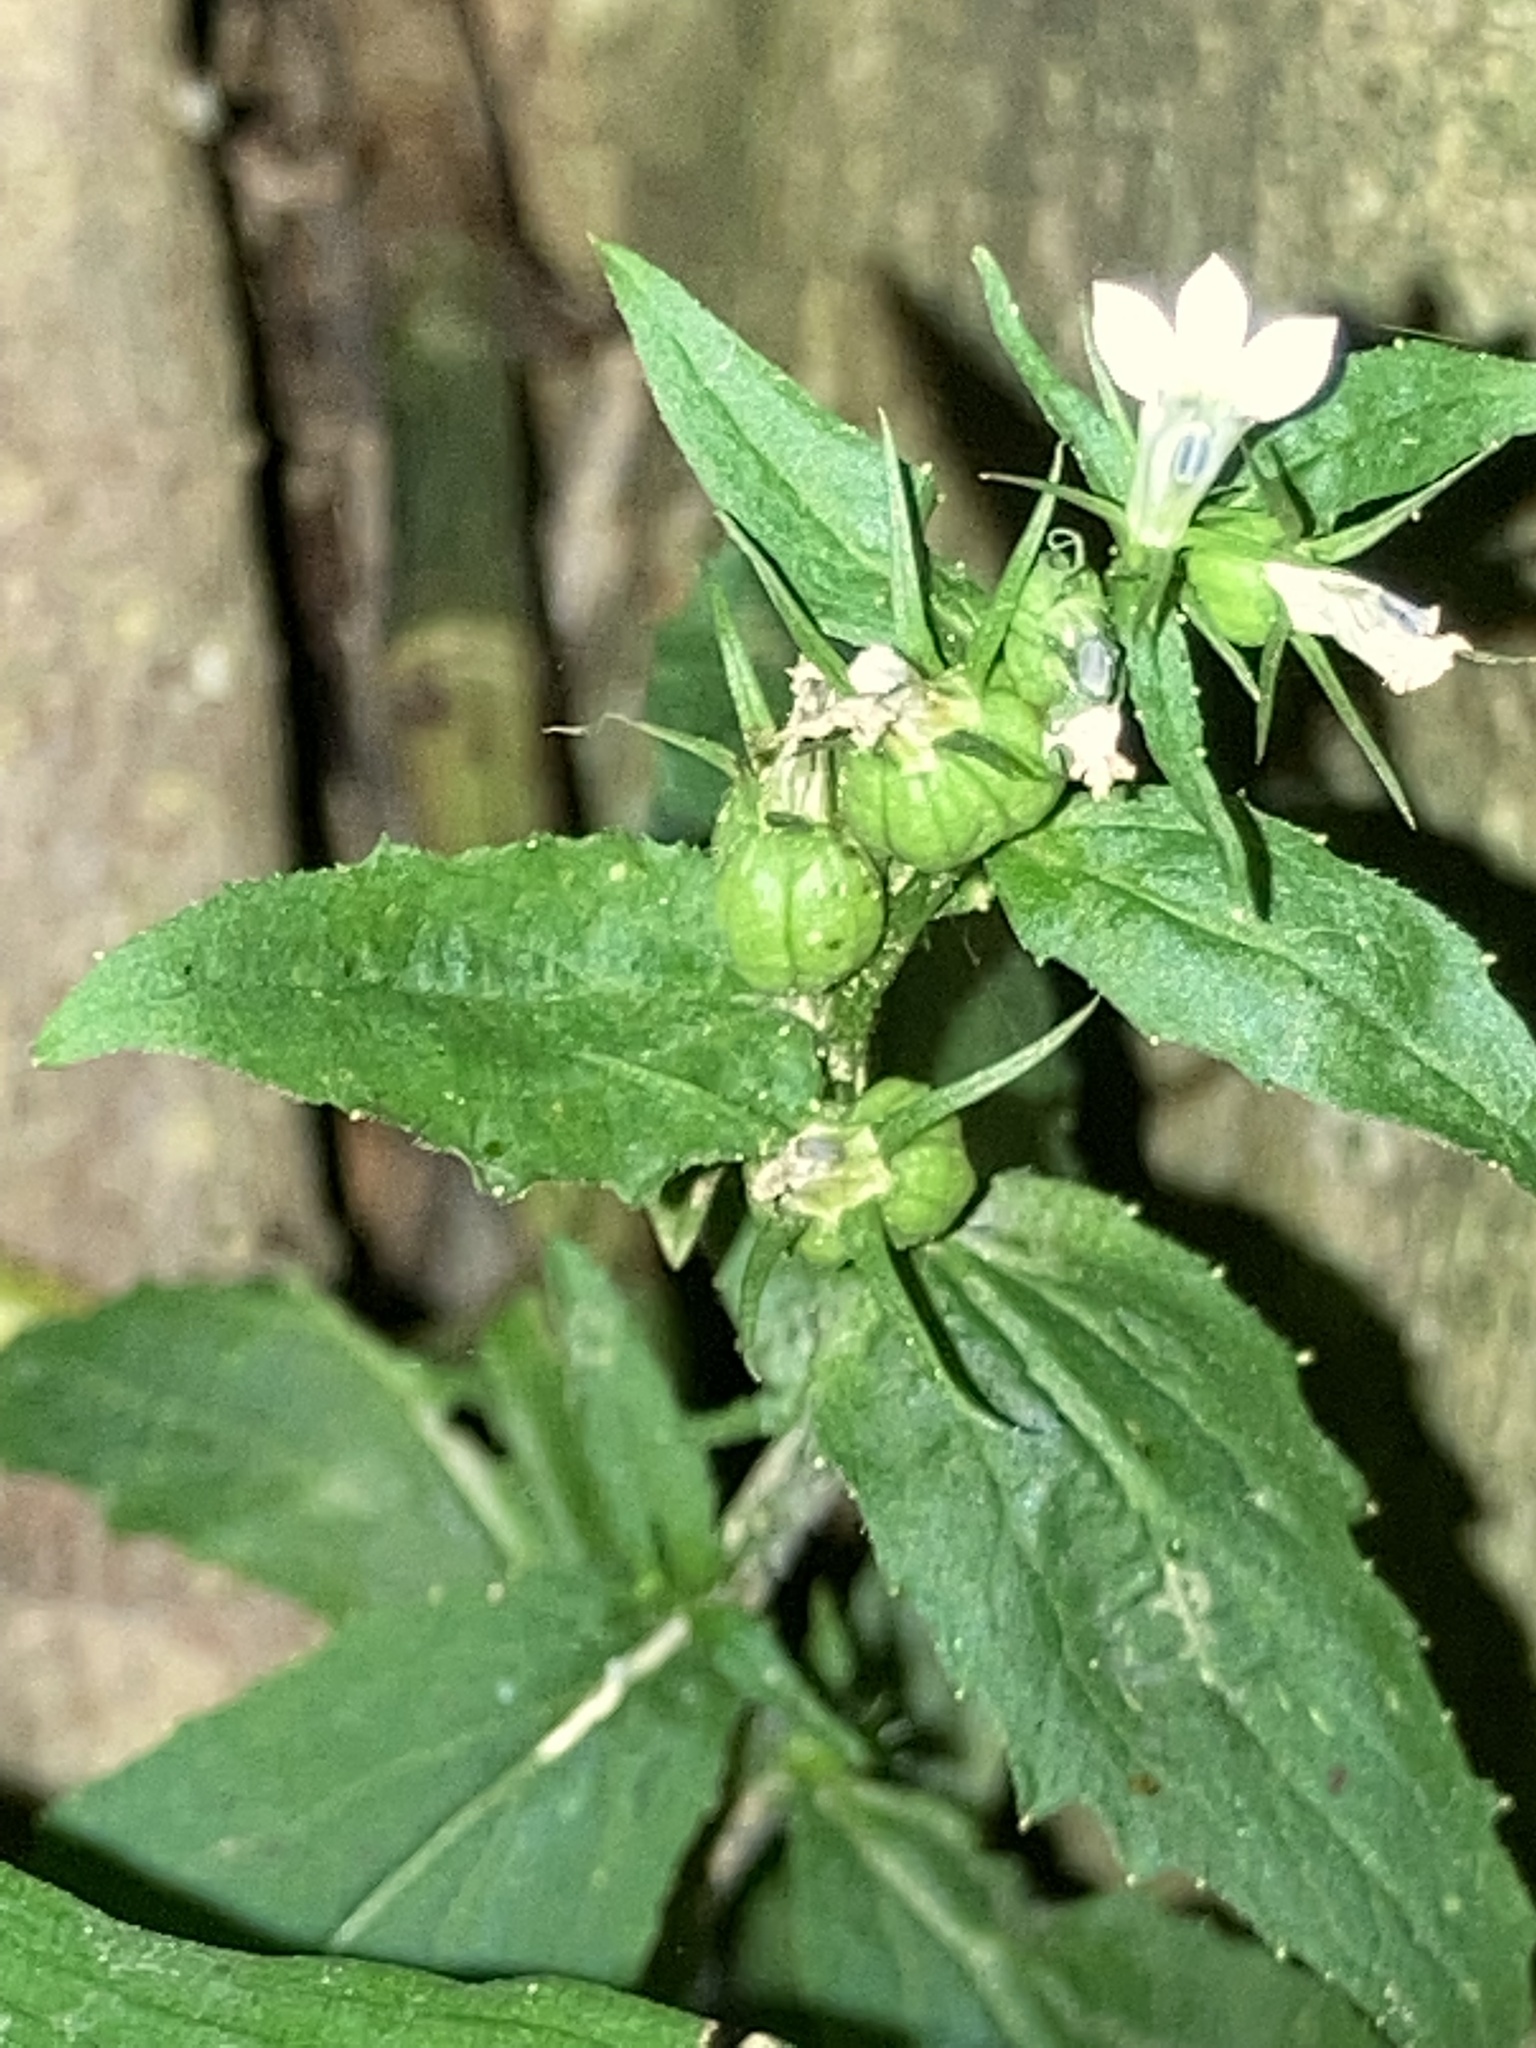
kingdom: Plantae
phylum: Tracheophyta
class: Magnoliopsida
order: Asterales
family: Campanulaceae
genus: Lobelia
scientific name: Lobelia inflata
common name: Indian tobacco
